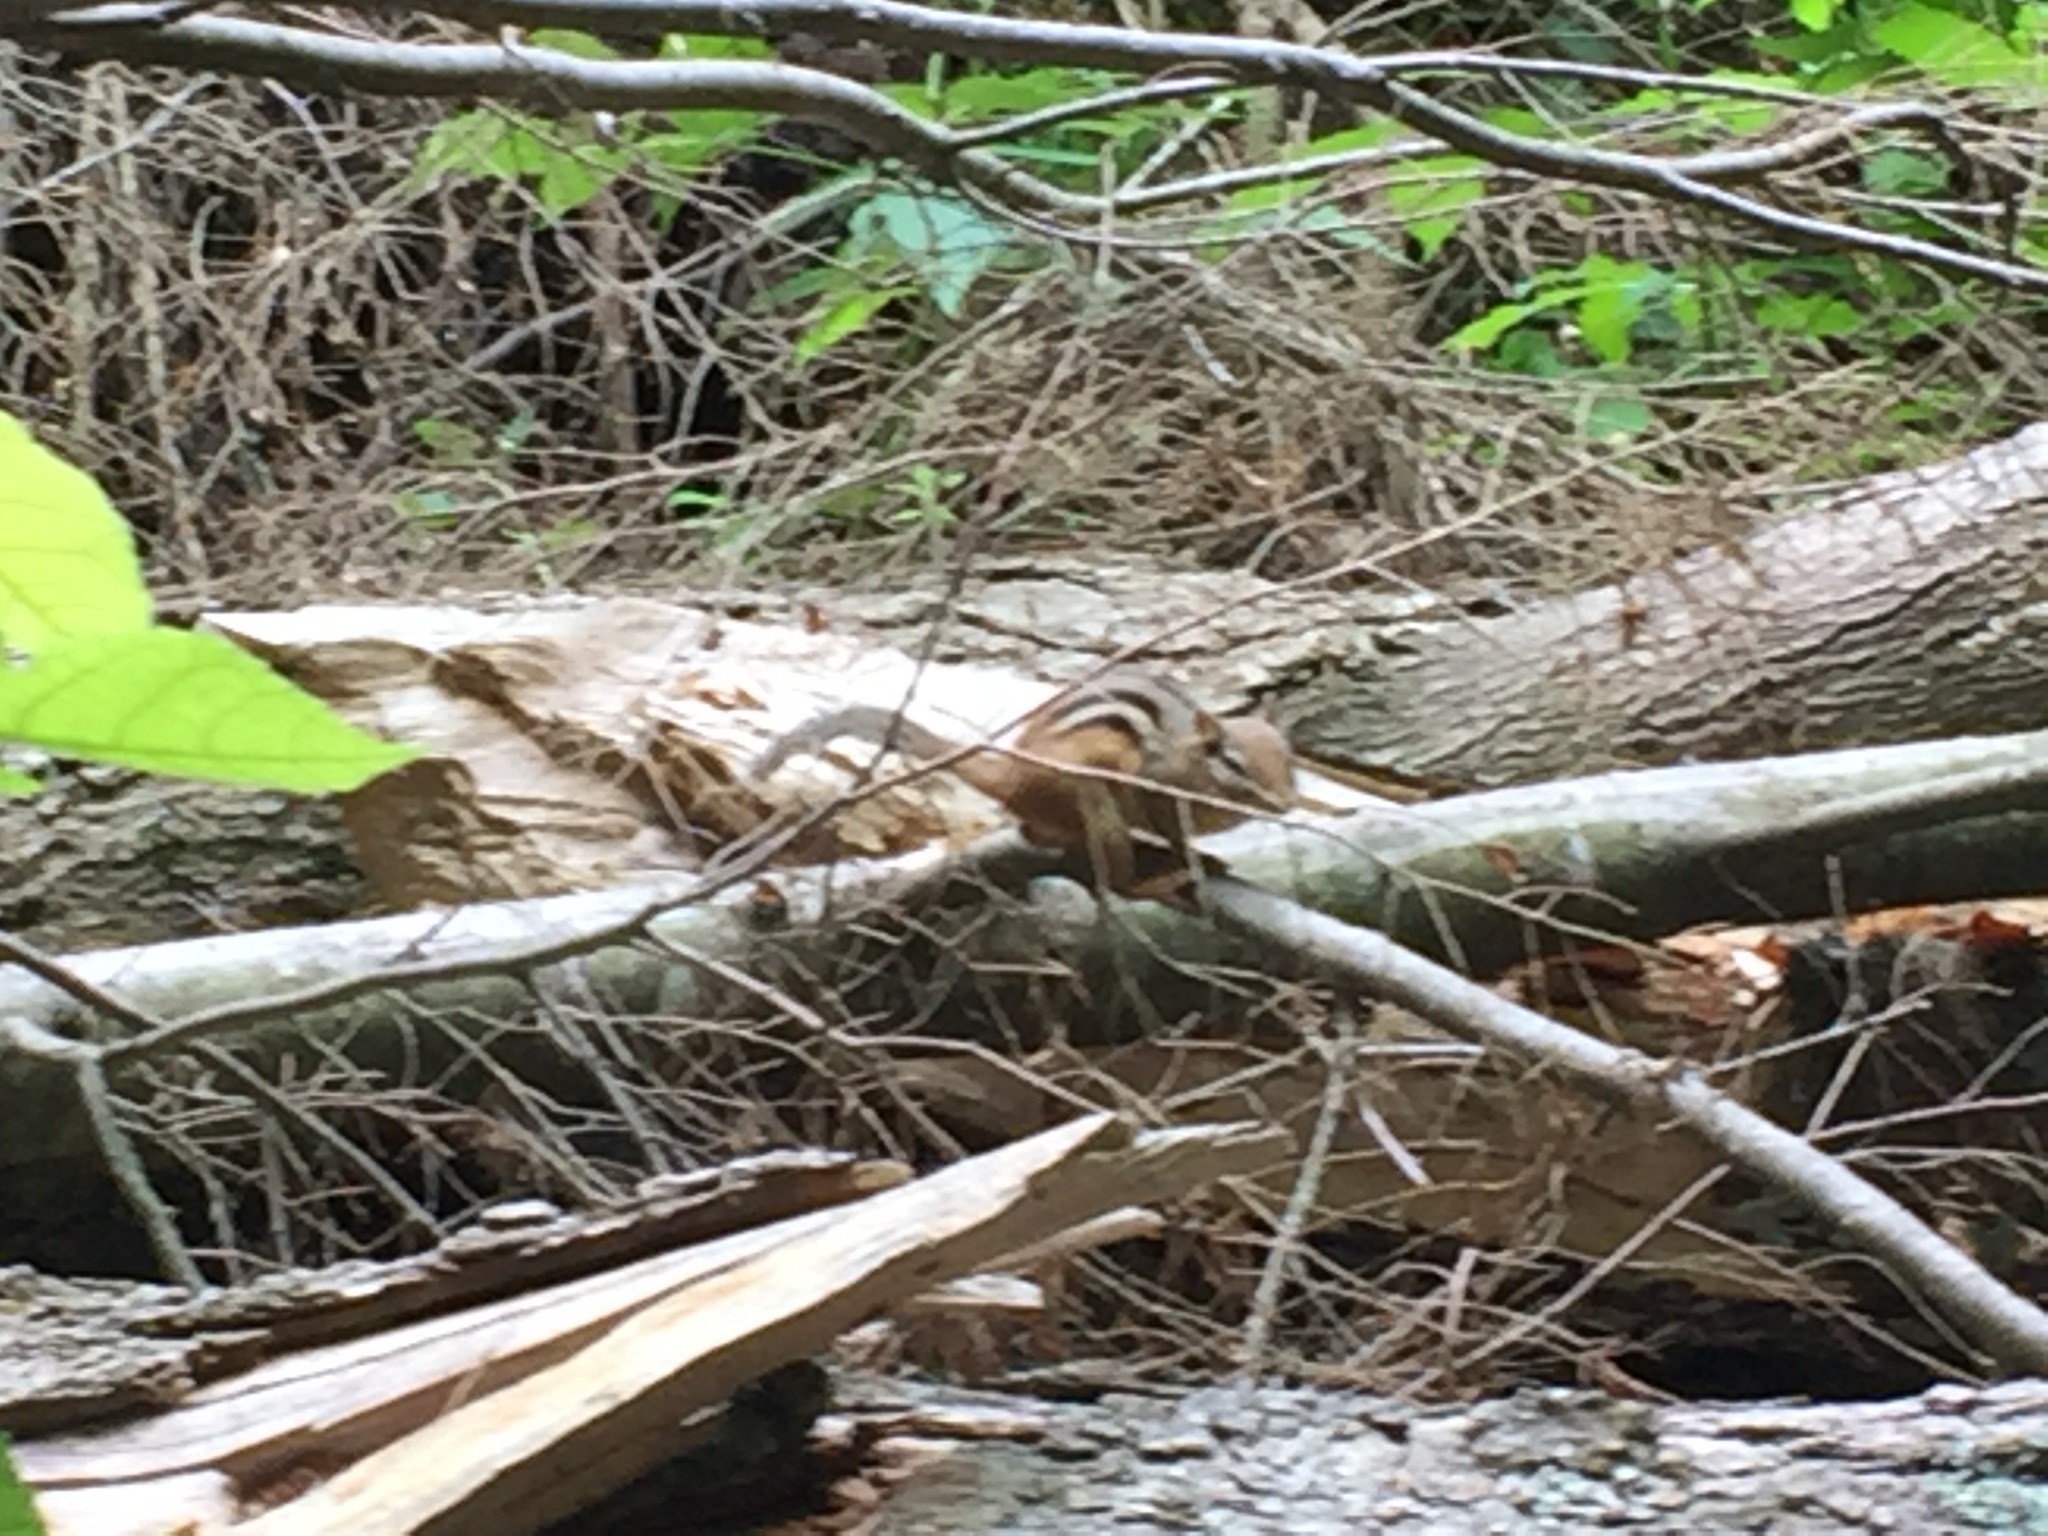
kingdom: Animalia
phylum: Chordata
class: Mammalia
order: Rodentia
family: Sciuridae
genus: Tamias
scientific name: Tamias striatus
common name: Eastern chipmunk
